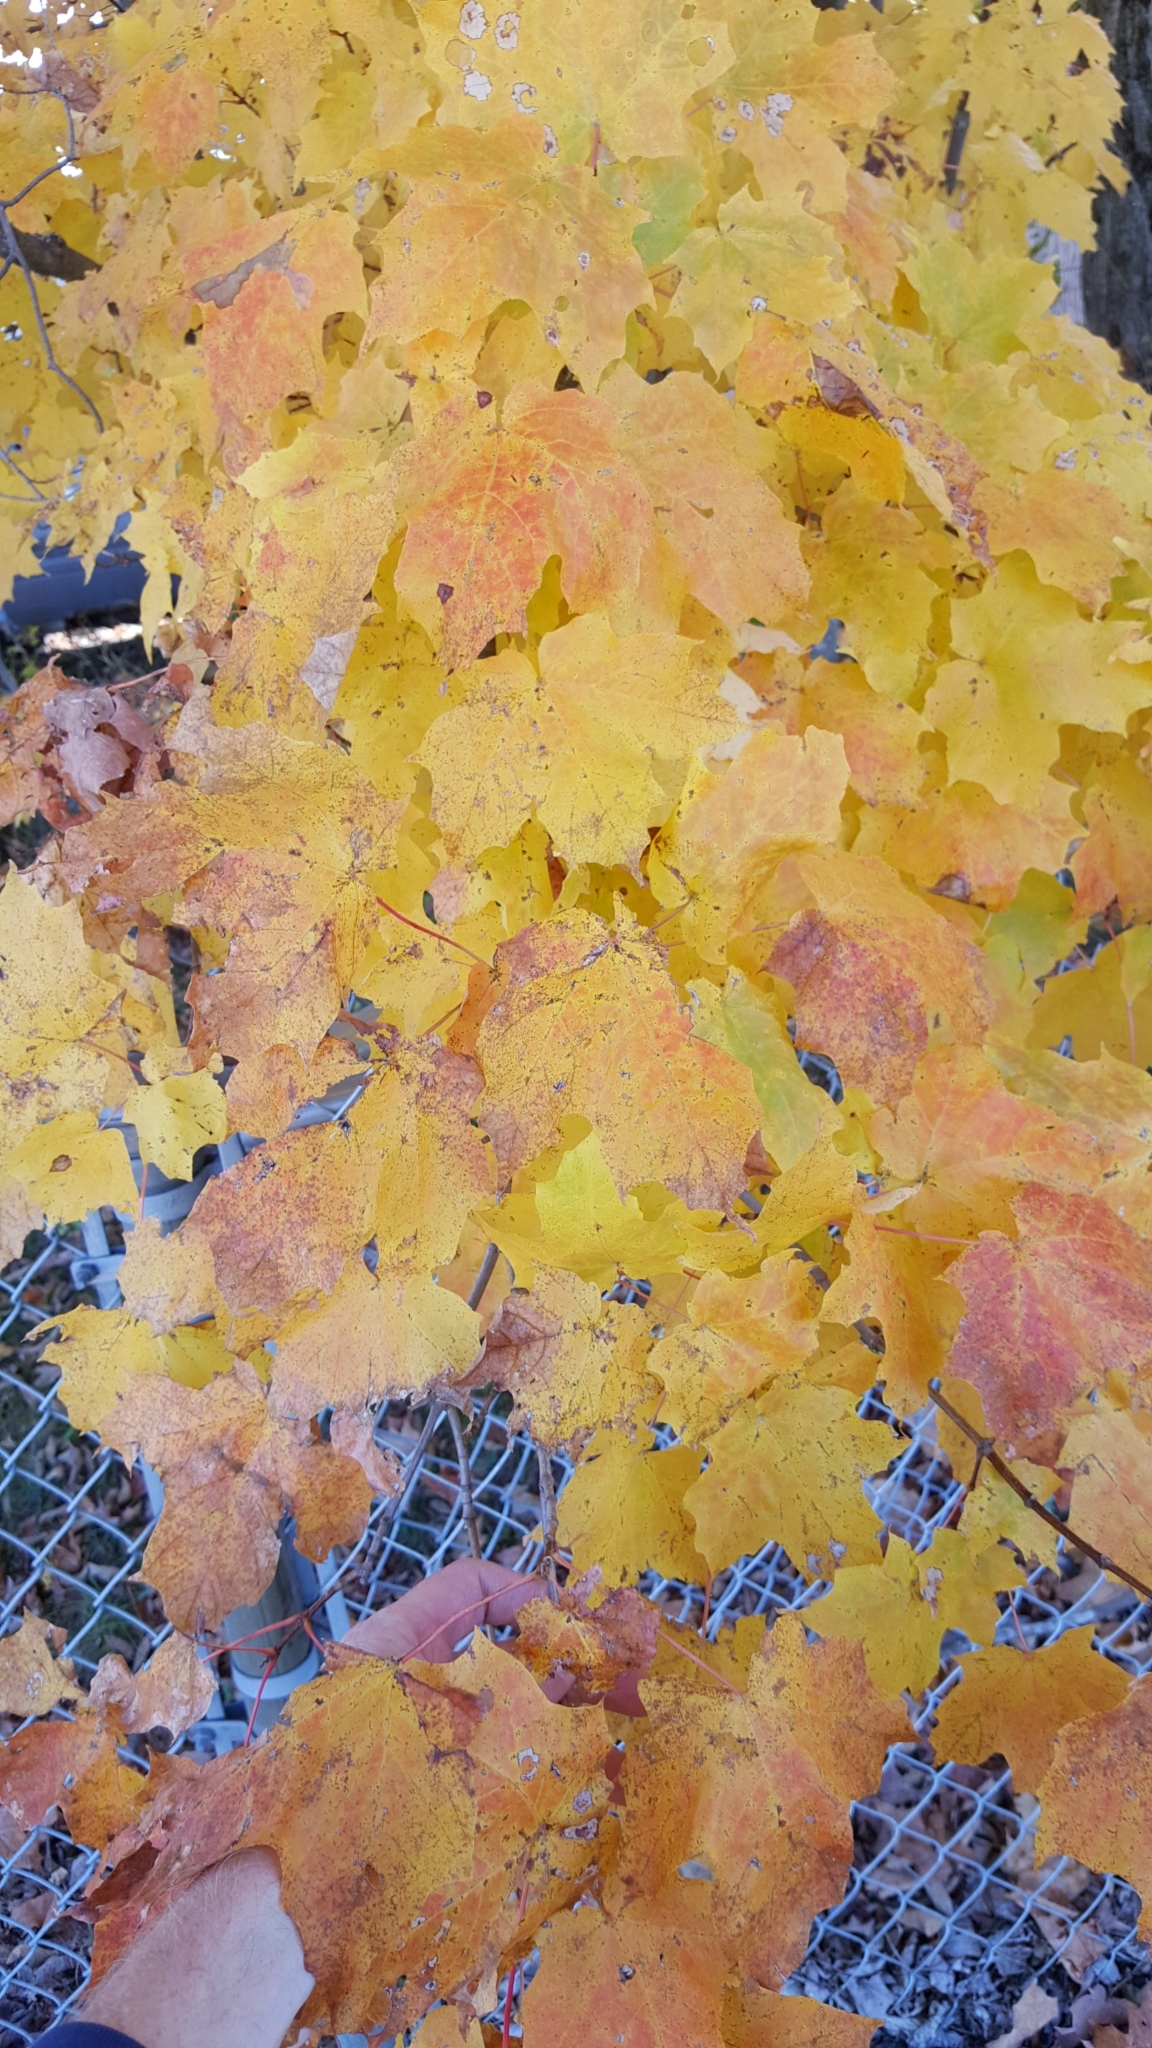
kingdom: Plantae
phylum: Tracheophyta
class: Magnoliopsida
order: Sapindales
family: Sapindaceae
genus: Acer
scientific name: Acer saccharum
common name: Sugar maple
